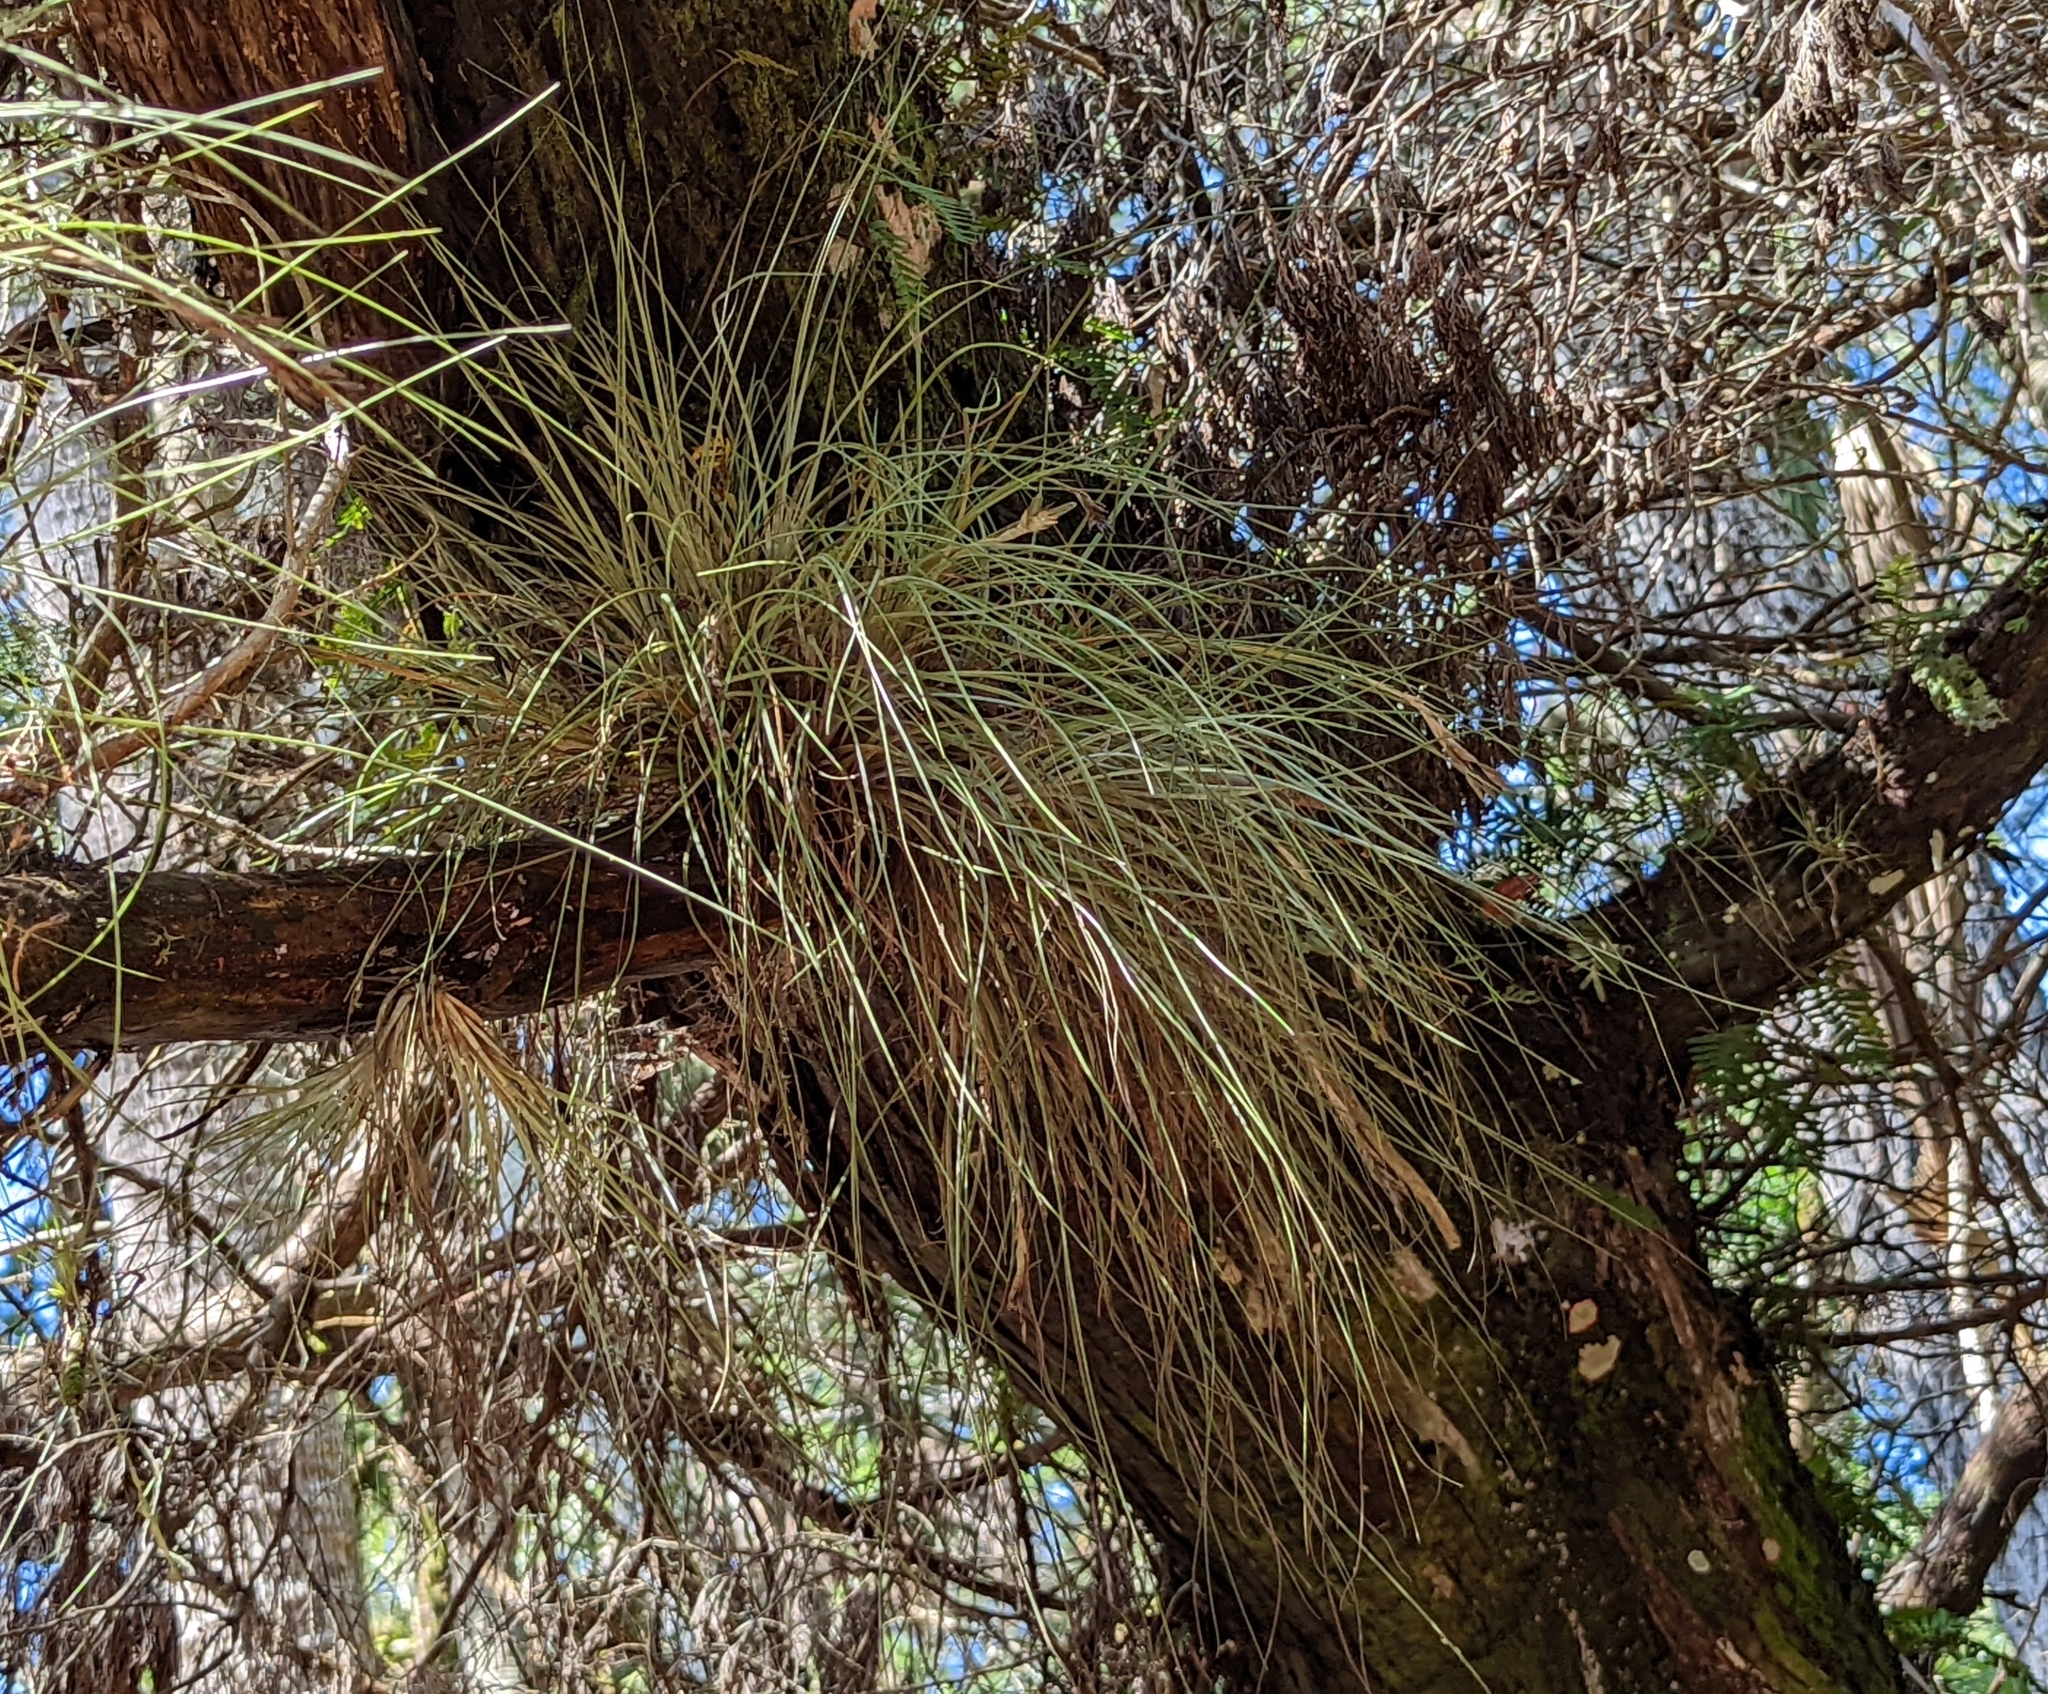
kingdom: Plantae
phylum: Tracheophyta
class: Liliopsida
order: Poales
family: Bromeliaceae
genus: Tillandsia
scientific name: Tillandsia bartramii
